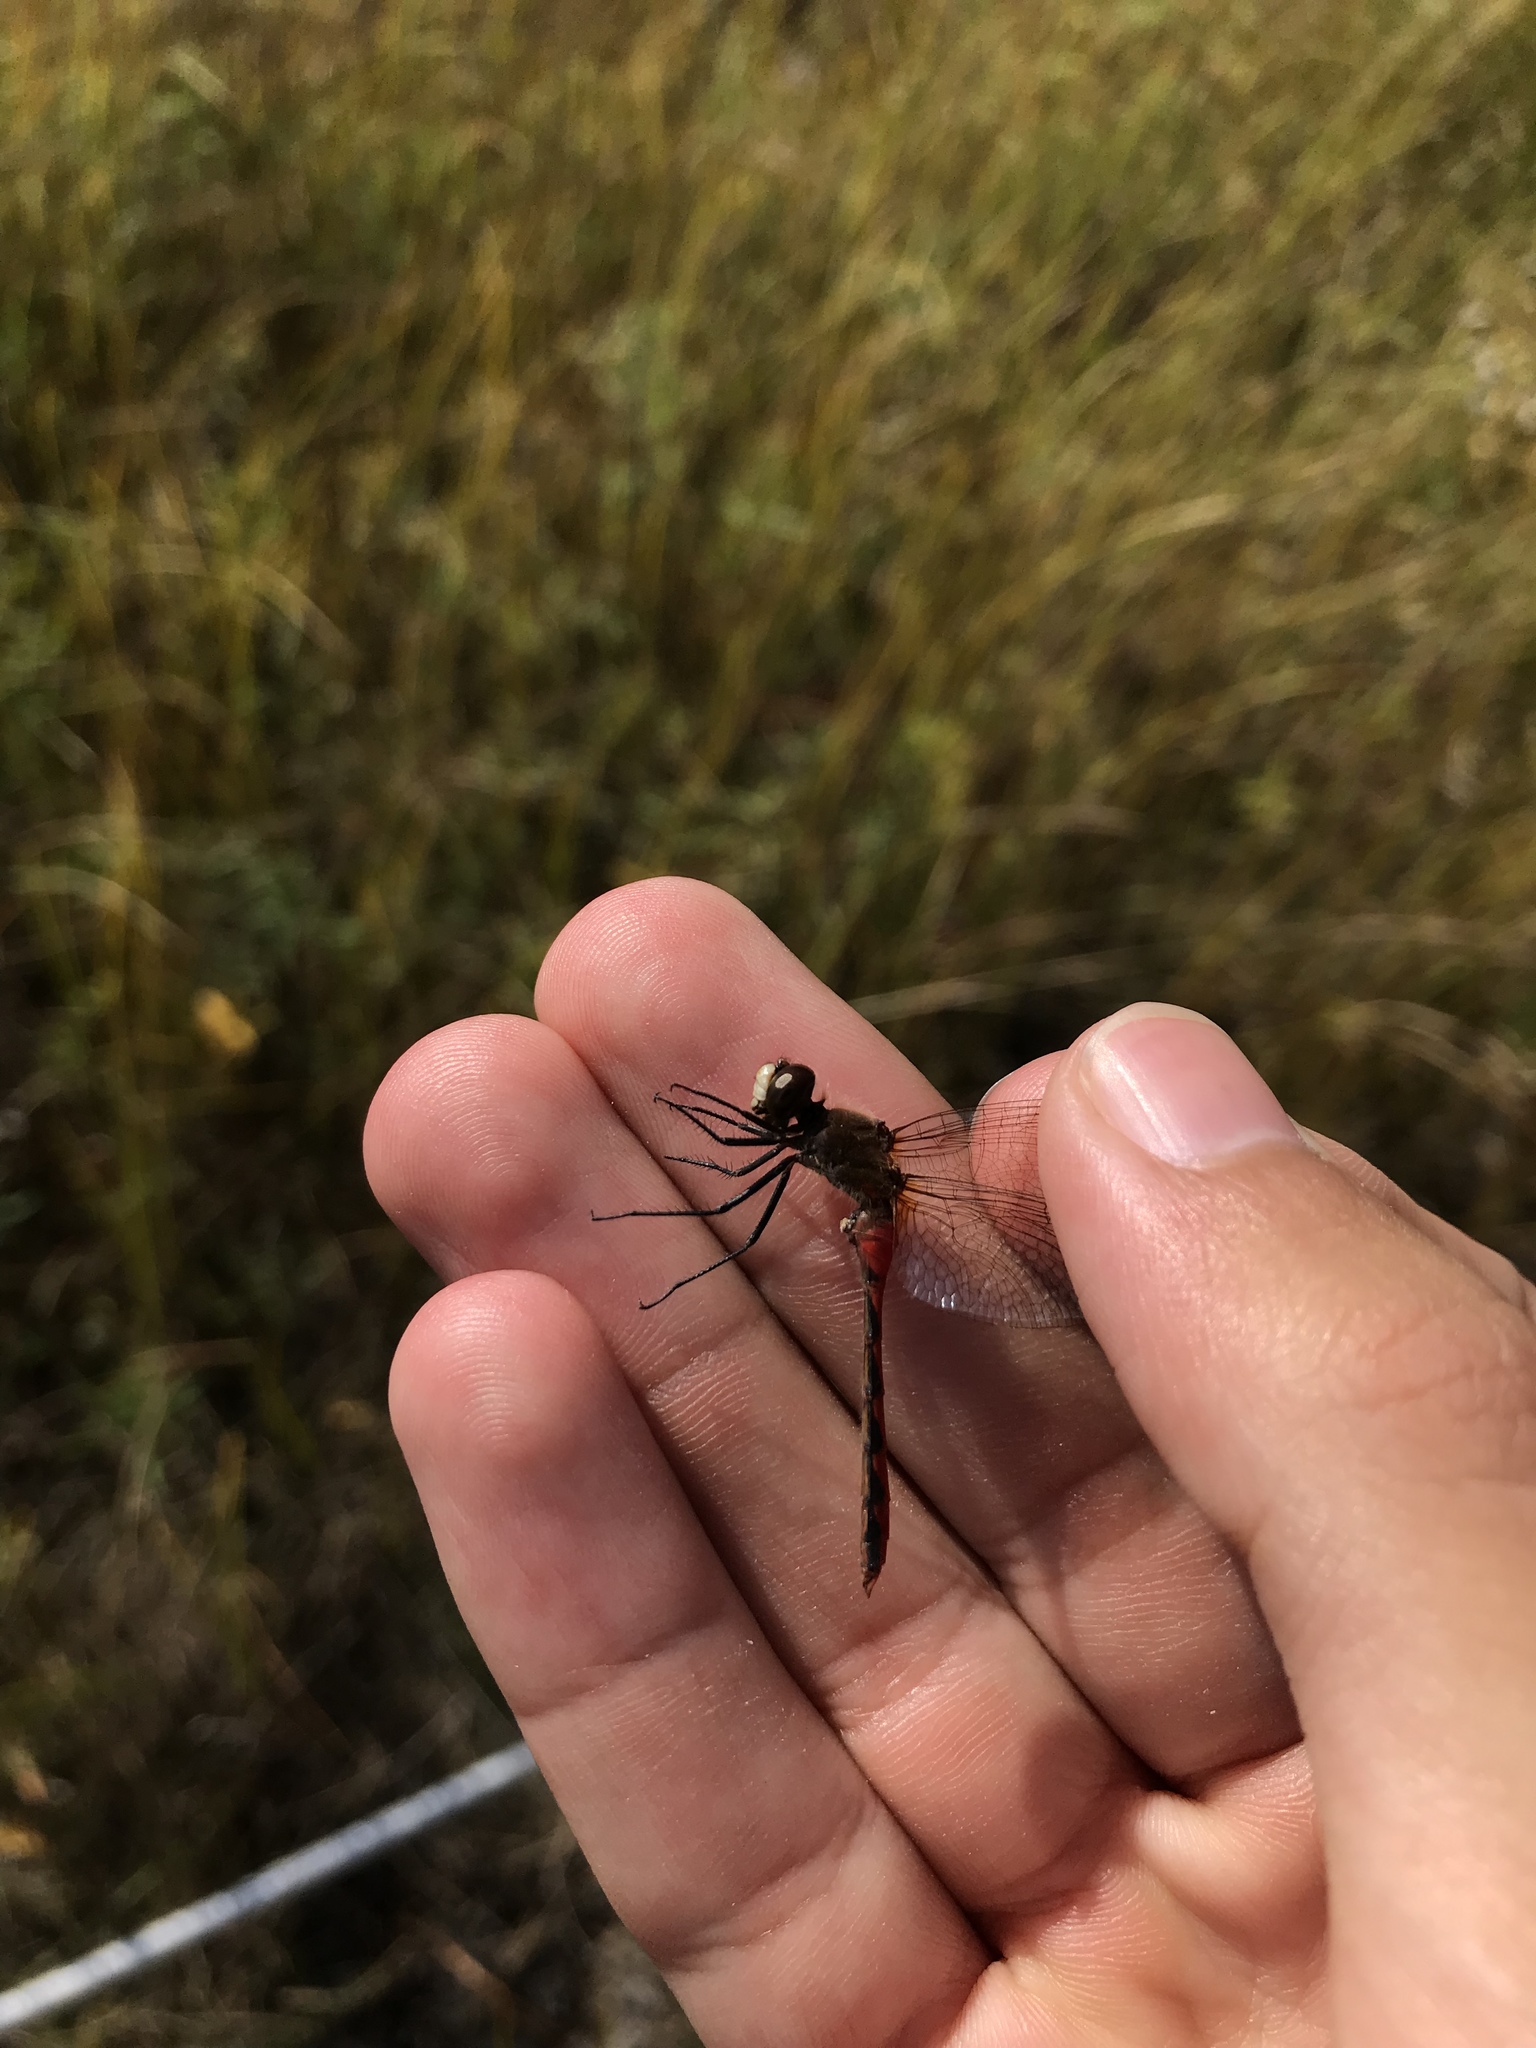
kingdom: Animalia
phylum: Arthropoda
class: Insecta
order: Odonata
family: Libellulidae
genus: Sympetrum
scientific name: Sympetrum obtrusum
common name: White-faced meadowhawk
